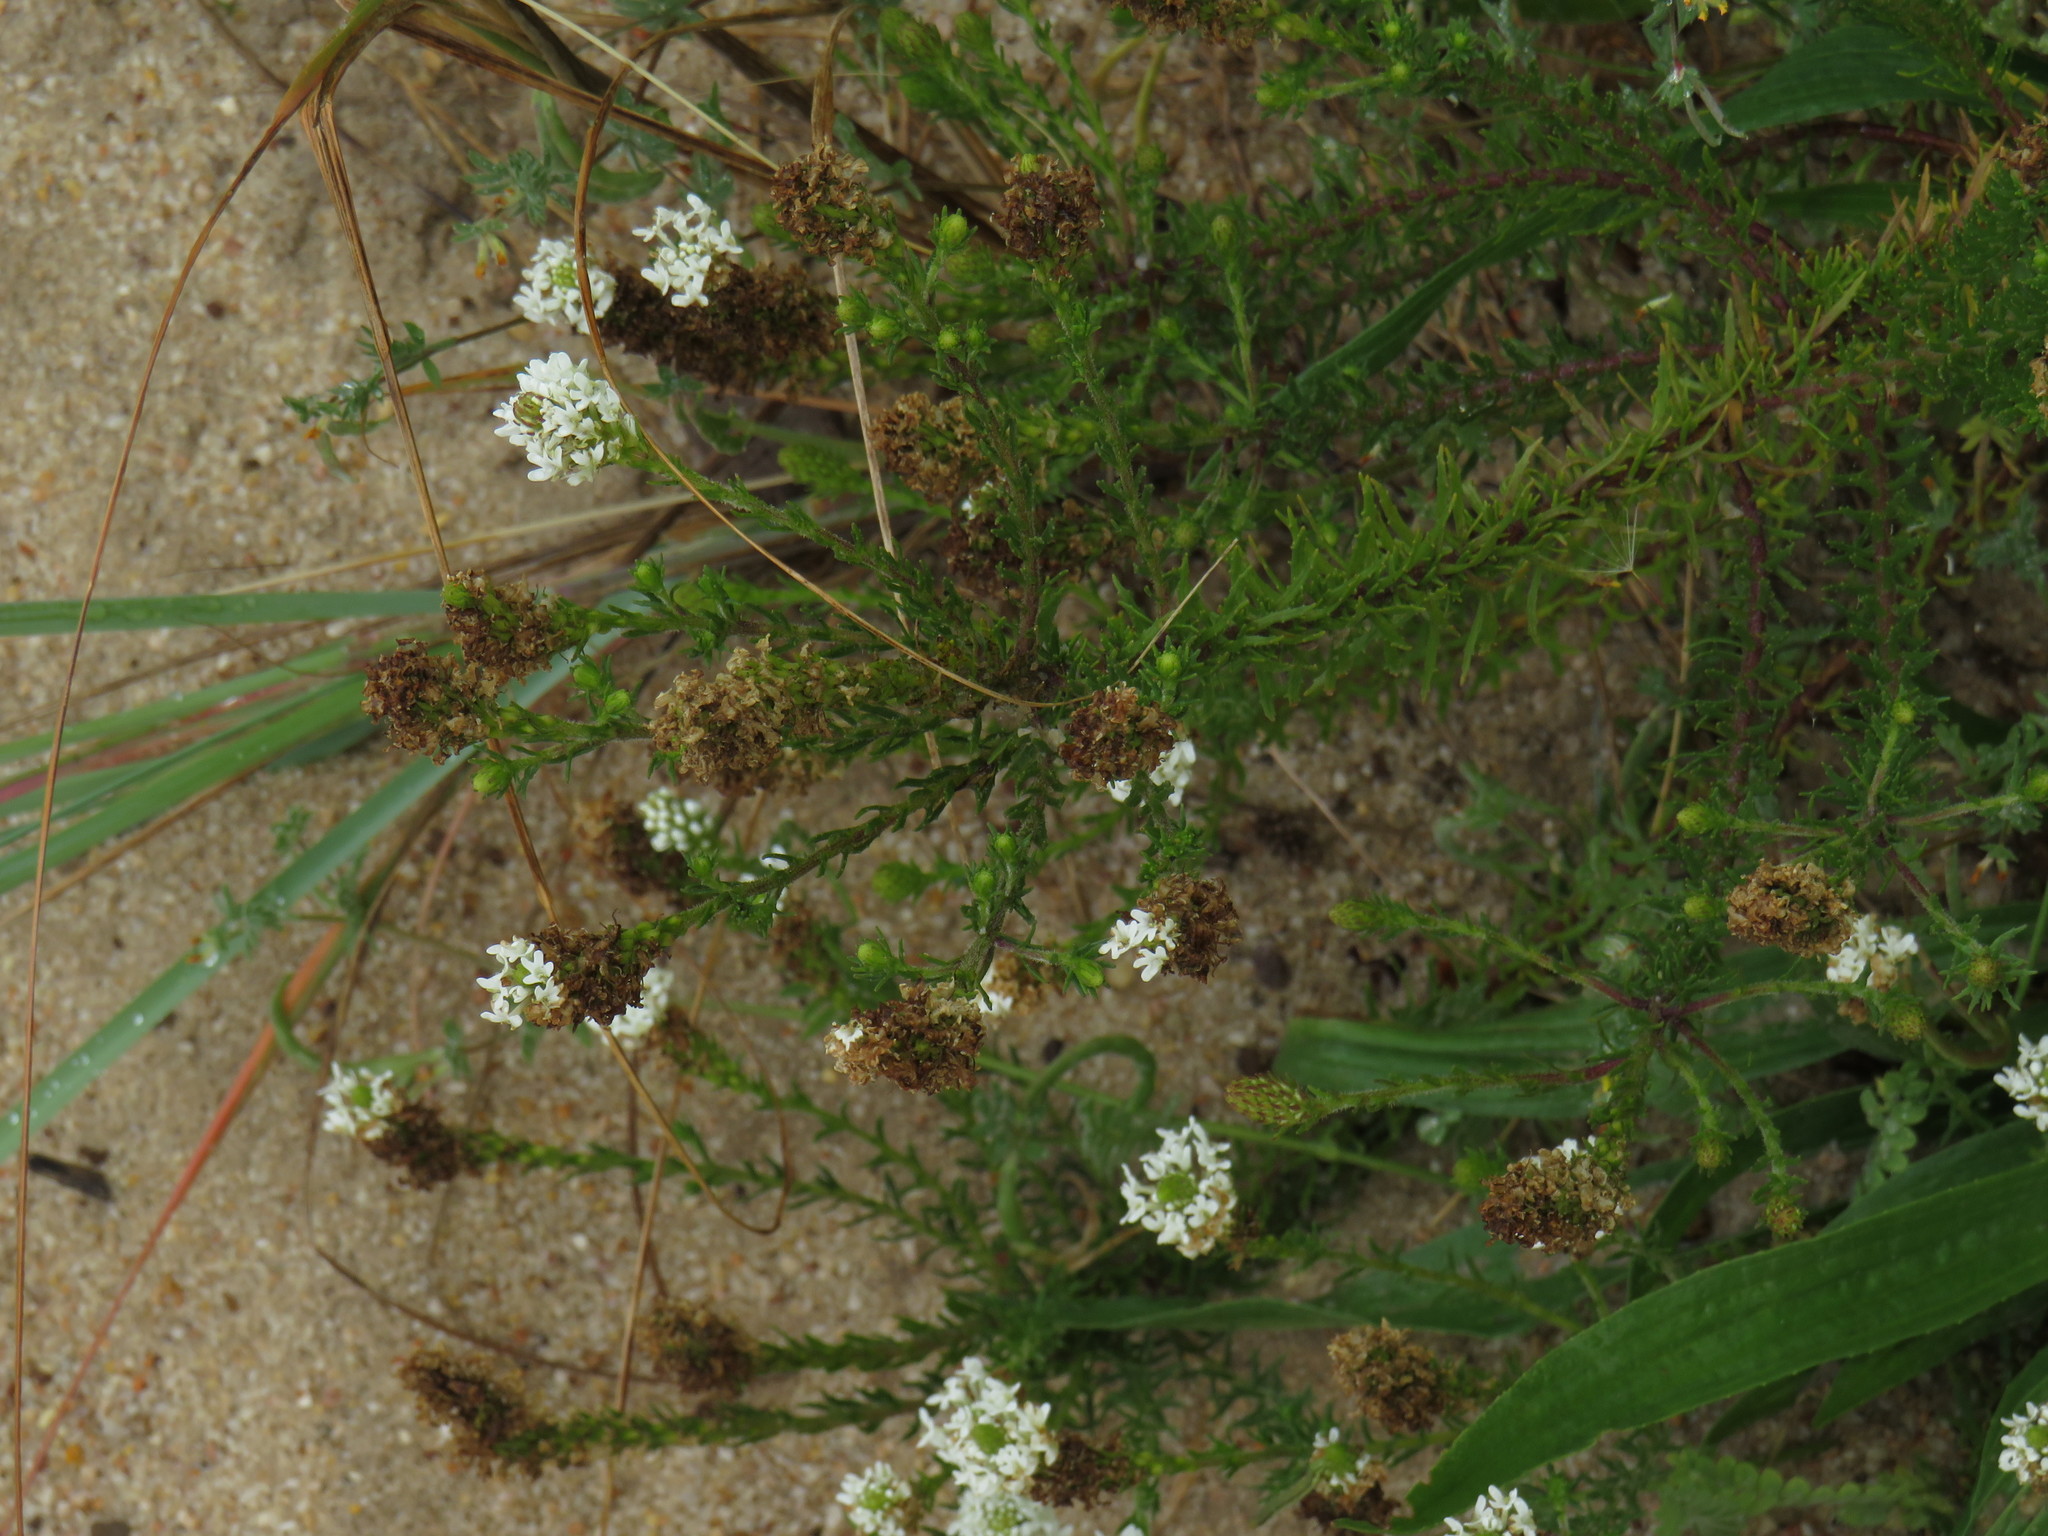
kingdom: Plantae
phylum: Tracheophyta
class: Magnoliopsida
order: Lamiales
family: Scrophulariaceae
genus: Dischisma
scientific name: Dischisma ciliatum
